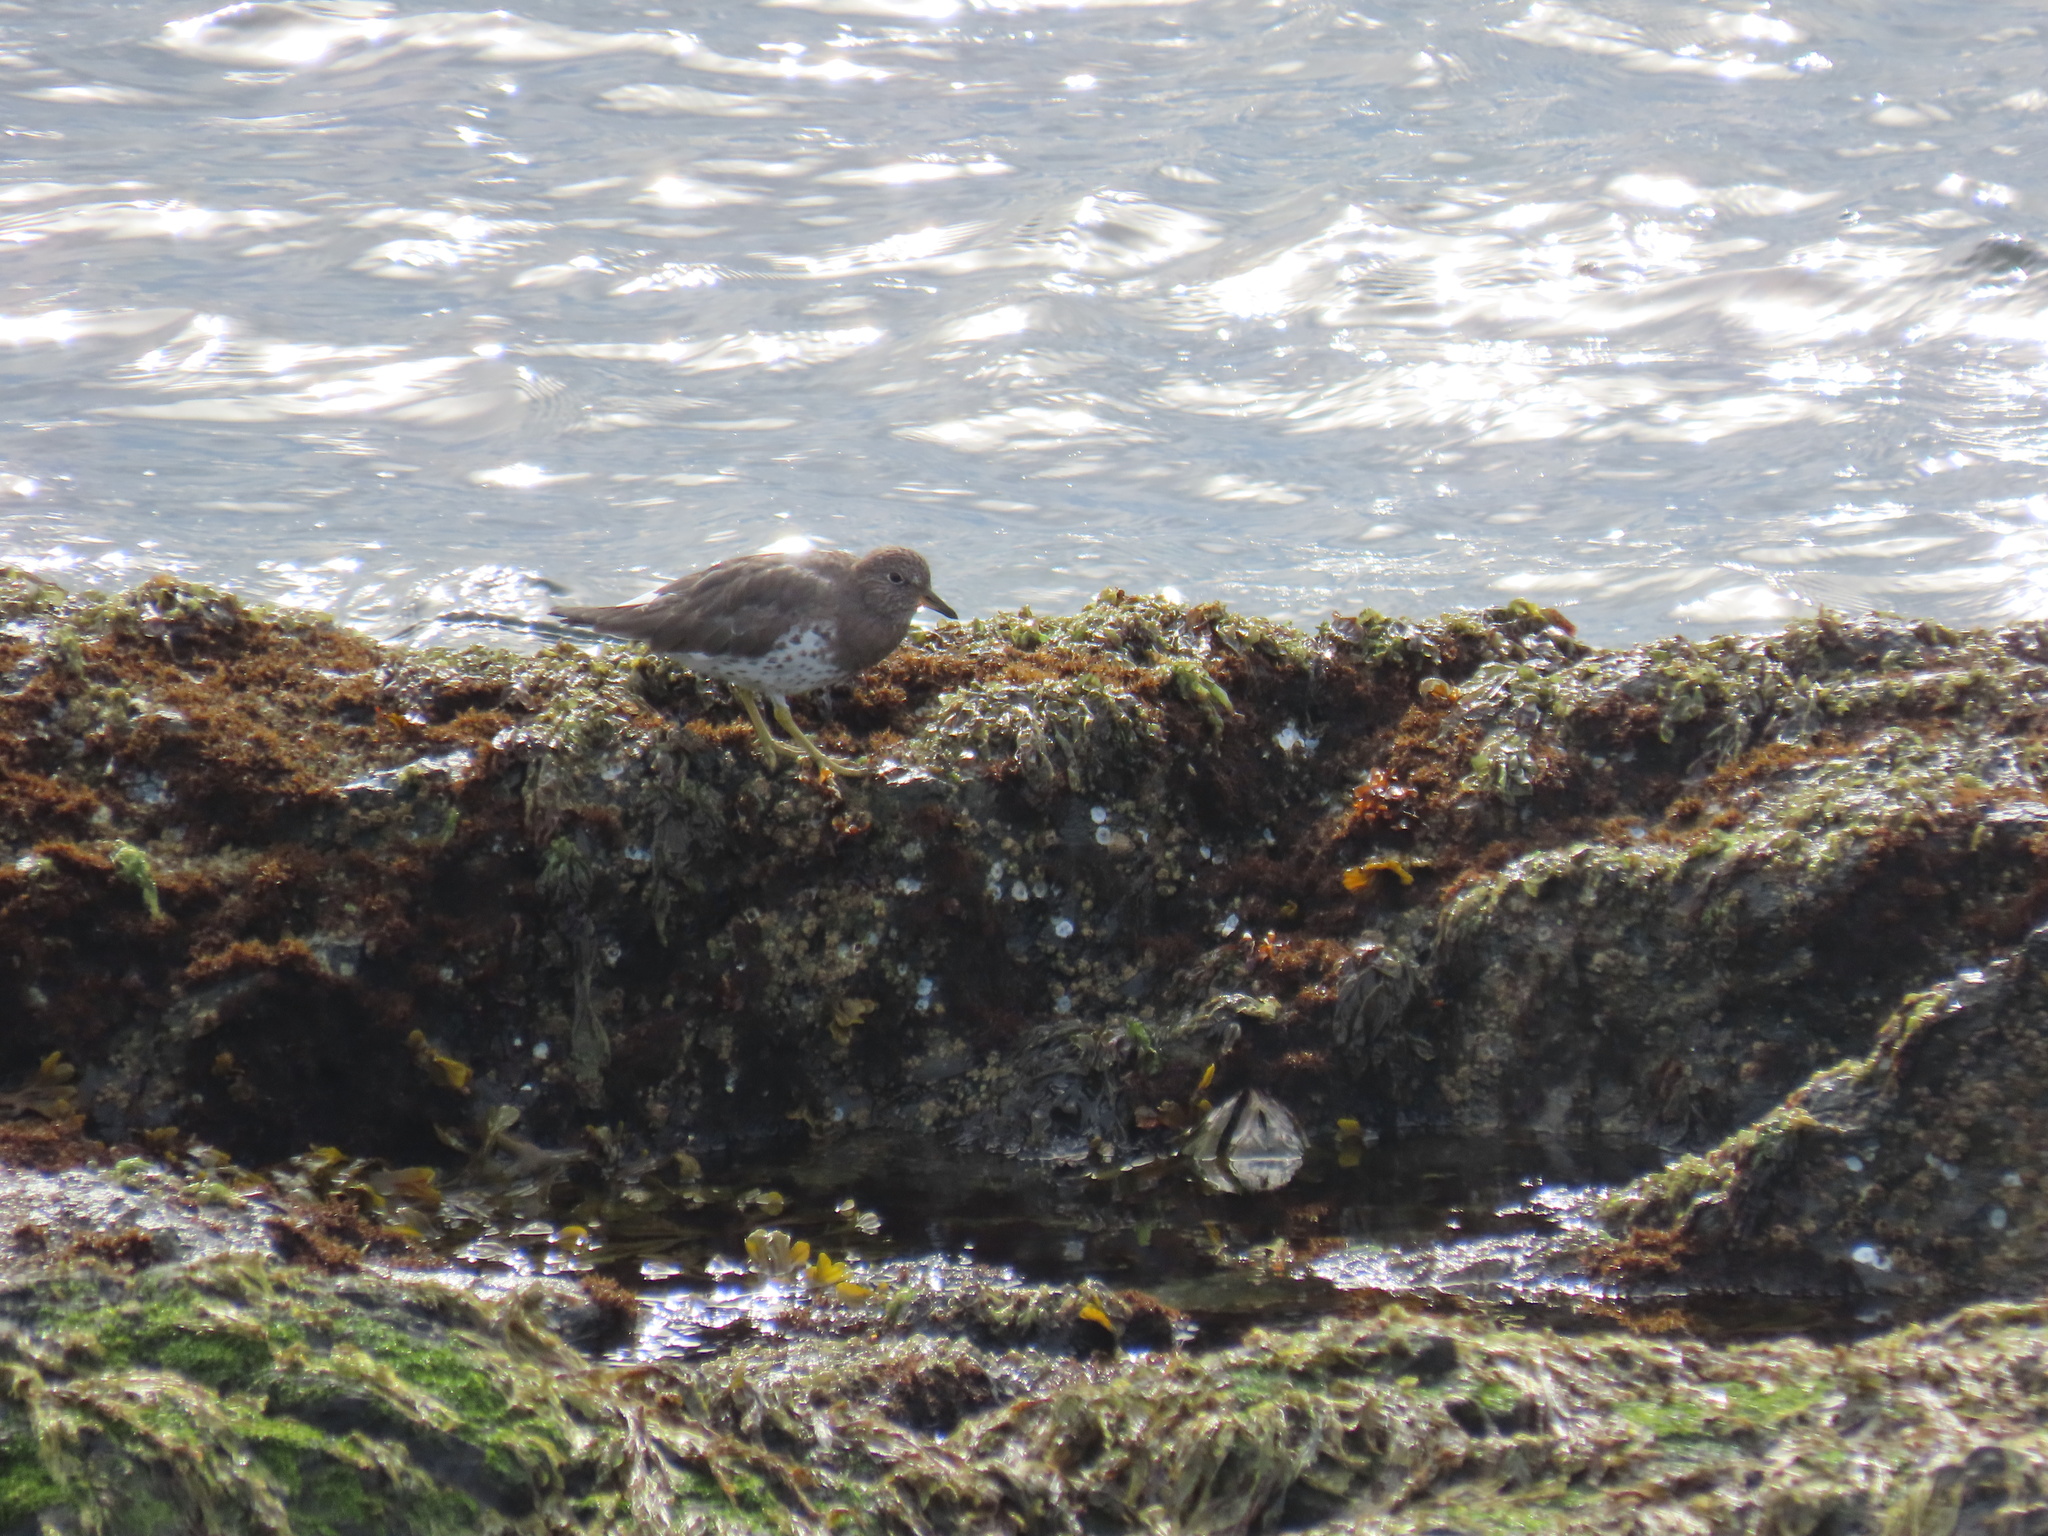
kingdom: Animalia
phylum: Chordata
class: Aves
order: Charadriiformes
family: Scolopacidae
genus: Calidris
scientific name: Calidris virgata
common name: Surfbird
